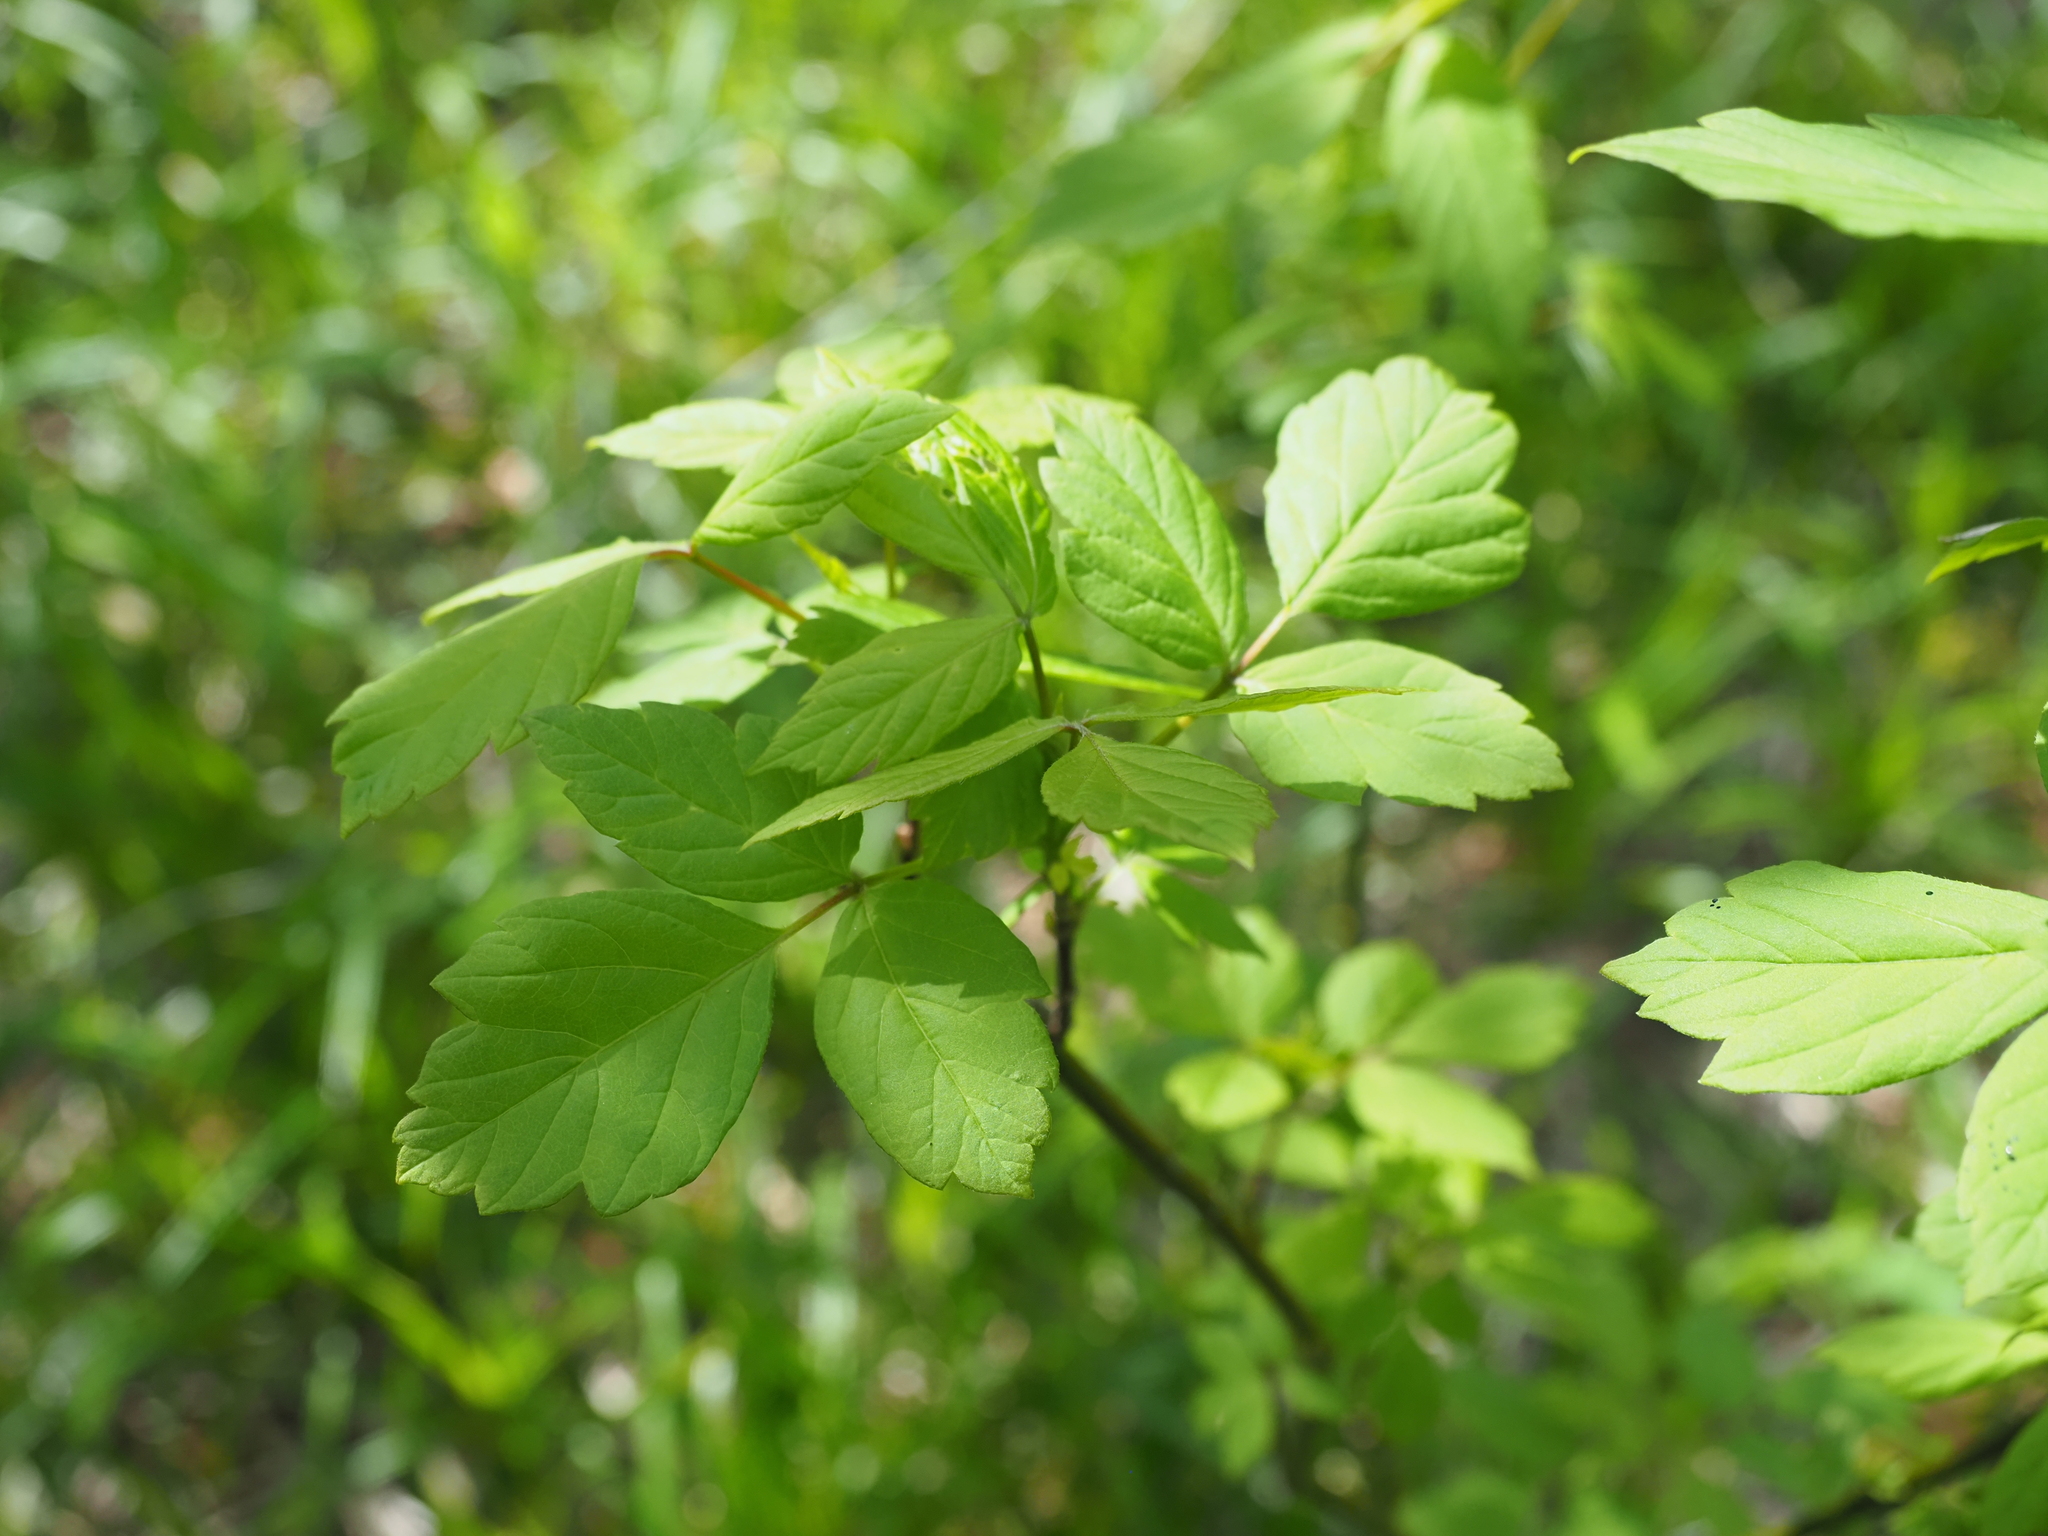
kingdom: Plantae
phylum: Tracheophyta
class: Magnoliopsida
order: Sapindales
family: Sapindaceae
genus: Acer
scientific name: Acer negundo
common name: Ashleaf maple
